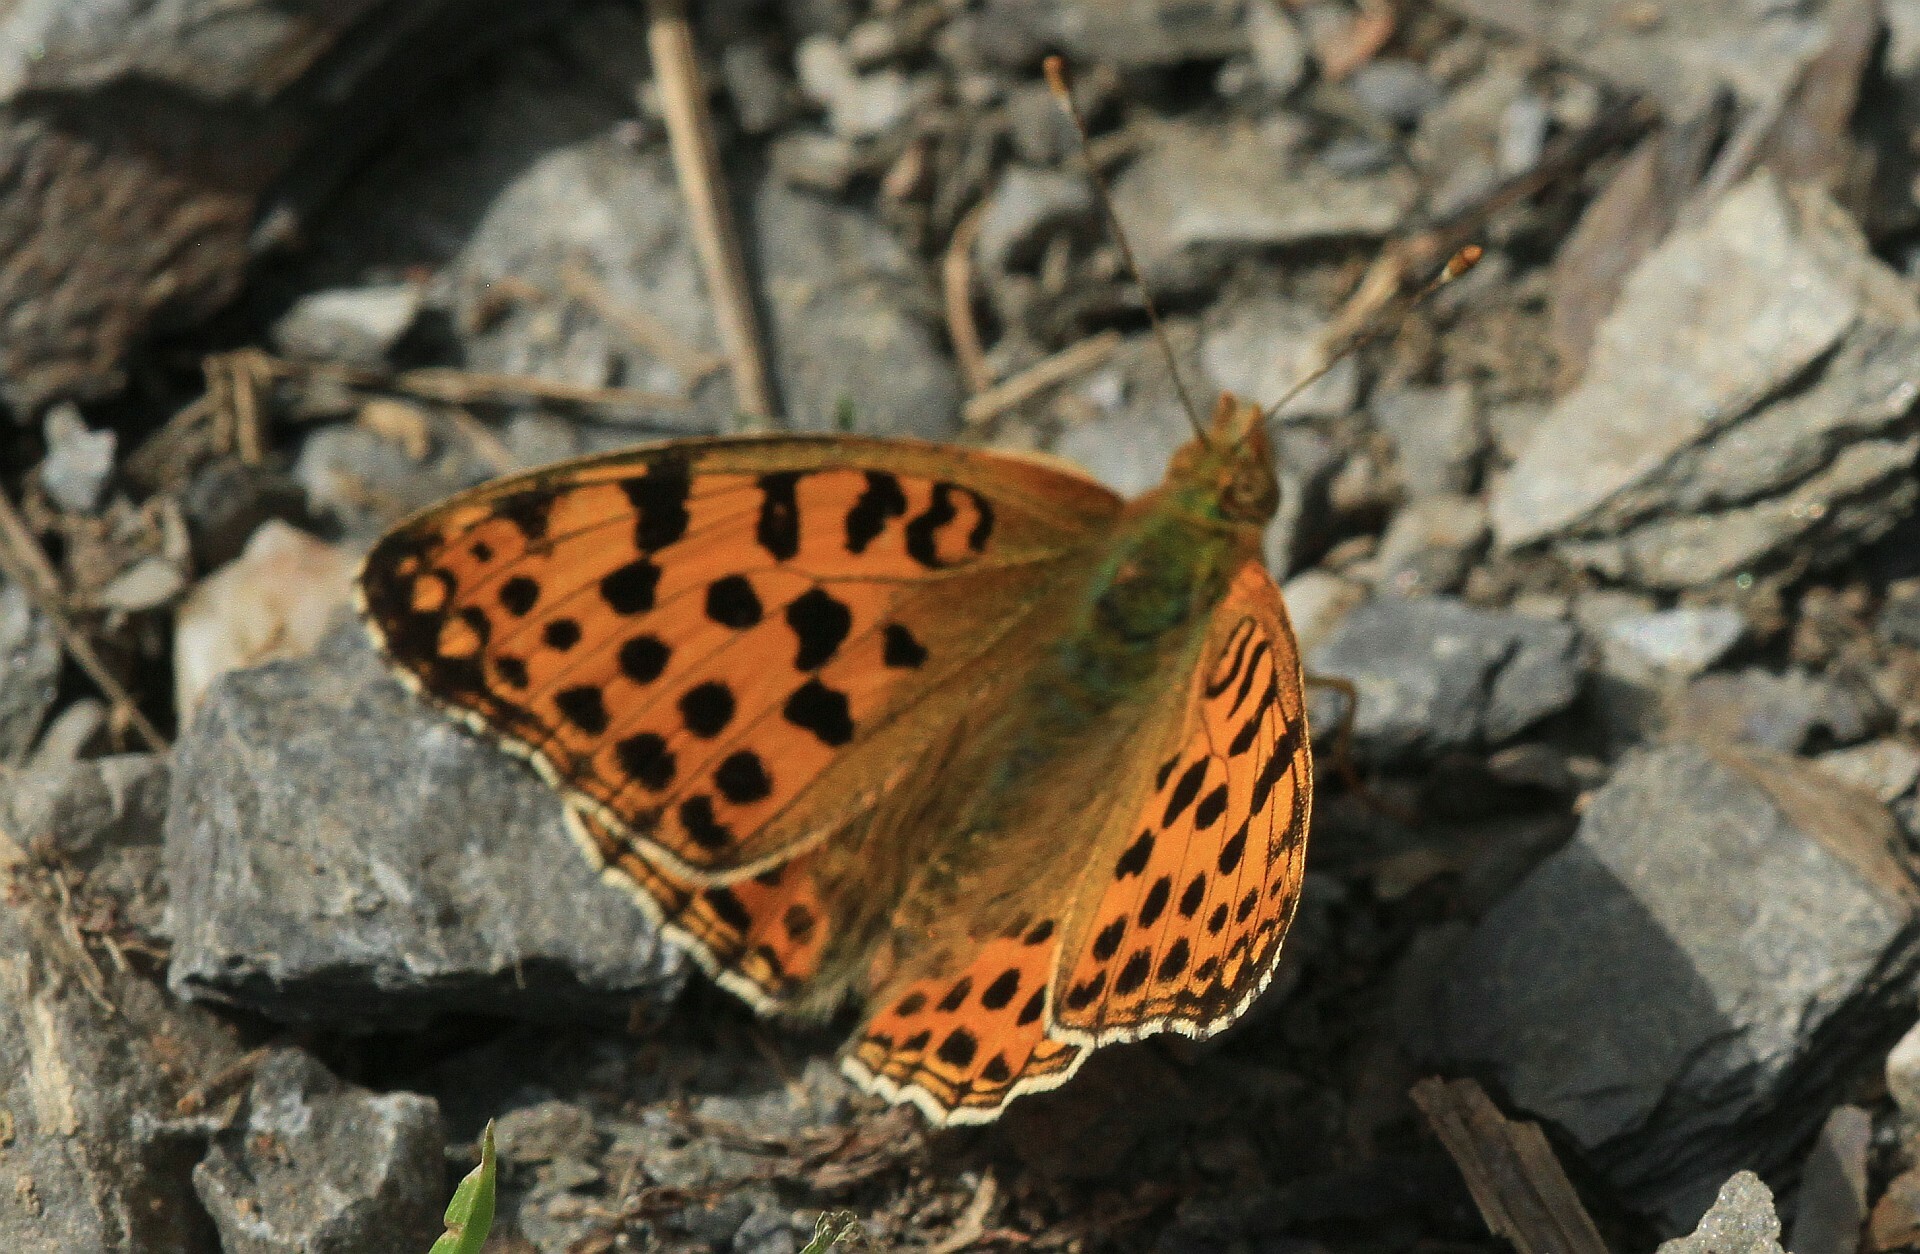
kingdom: Animalia
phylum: Arthropoda
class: Insecta
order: Lepidoptera
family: Nymphalidae
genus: Issoria
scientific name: Issoria lathonia
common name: Queen of spain fritillary
